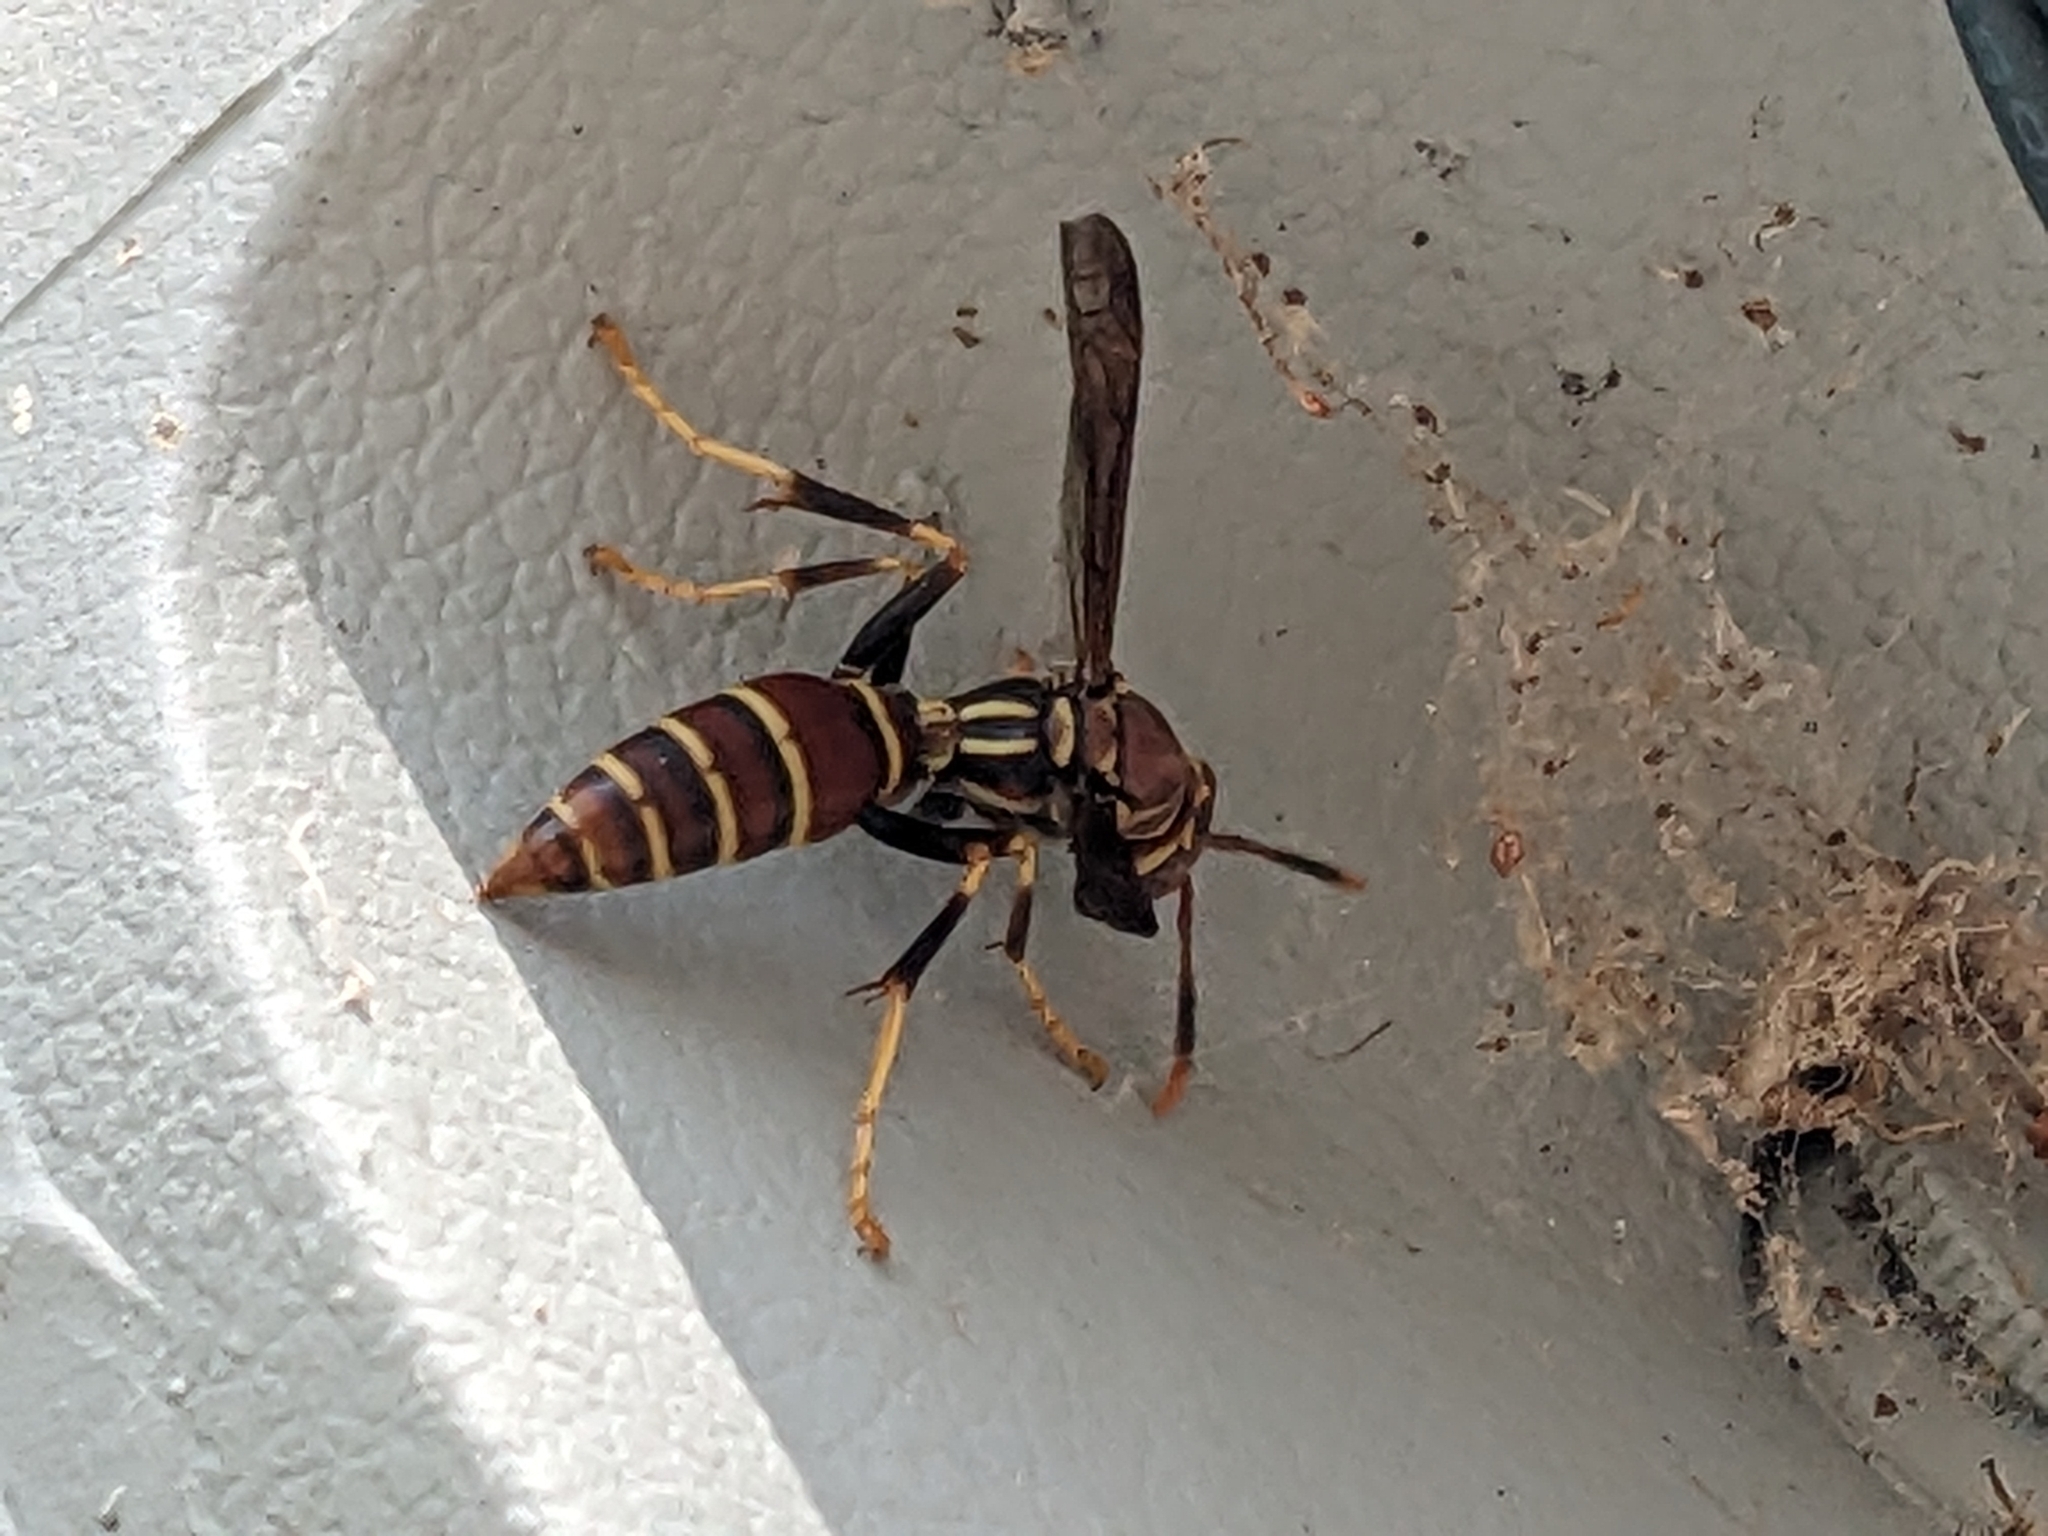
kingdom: Animalia
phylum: Arthropoda
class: Insecta
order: Hymenoptera
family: Eumenidae
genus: Polistes
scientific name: Polistes exclamans
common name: Paper wasp
